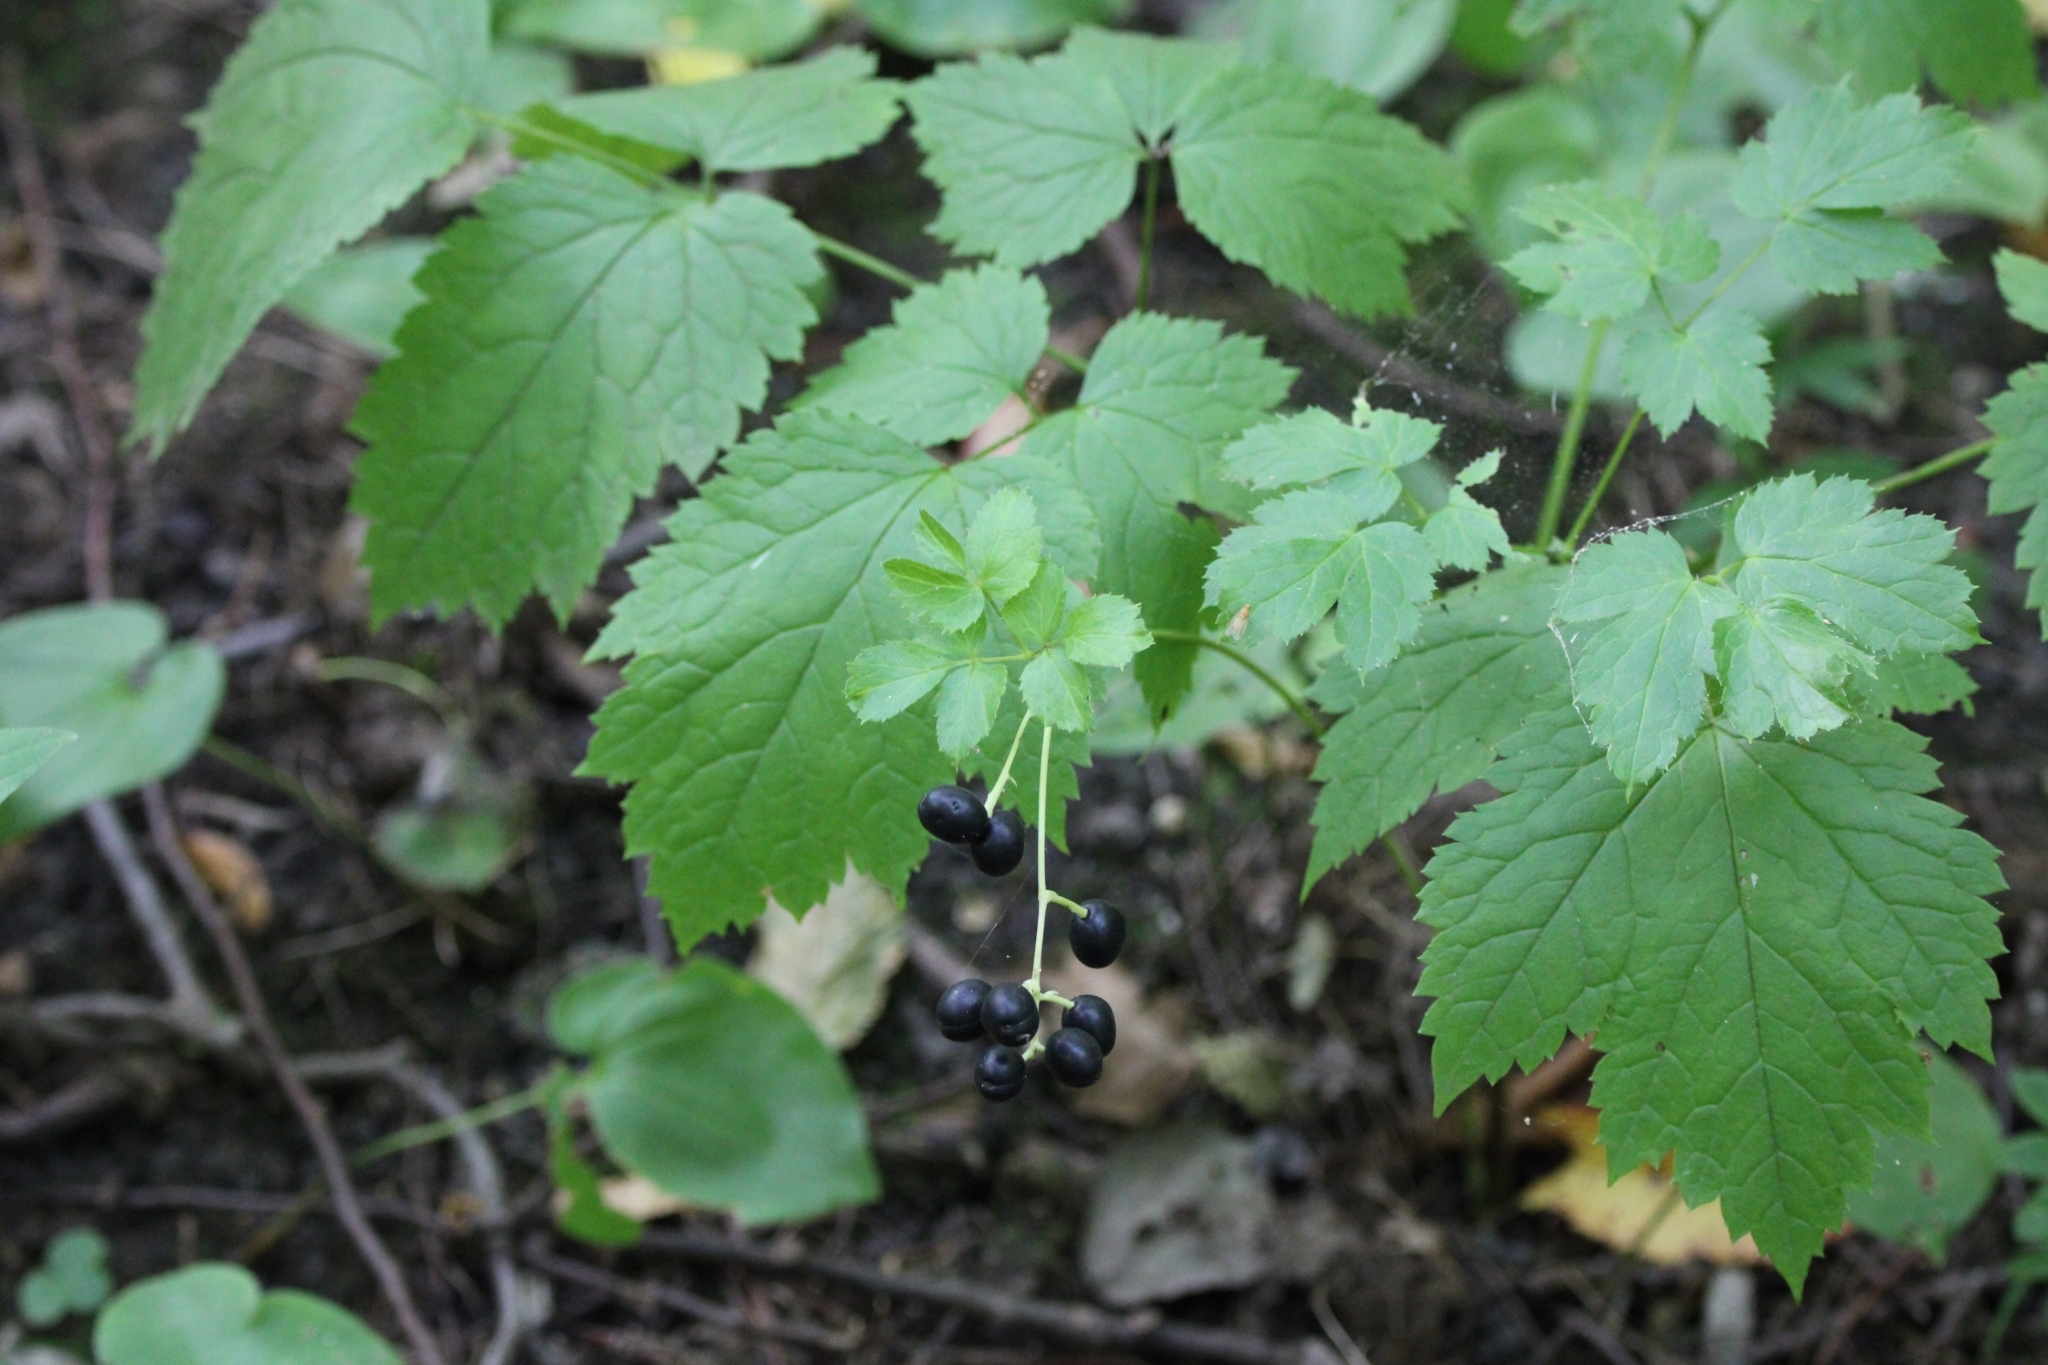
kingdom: Plantae
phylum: Tracheophyta
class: Magnoliopsida
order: Ranunculales
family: Ranunculaceae
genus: Actaea
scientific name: Actaea spicata
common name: Baneberry
